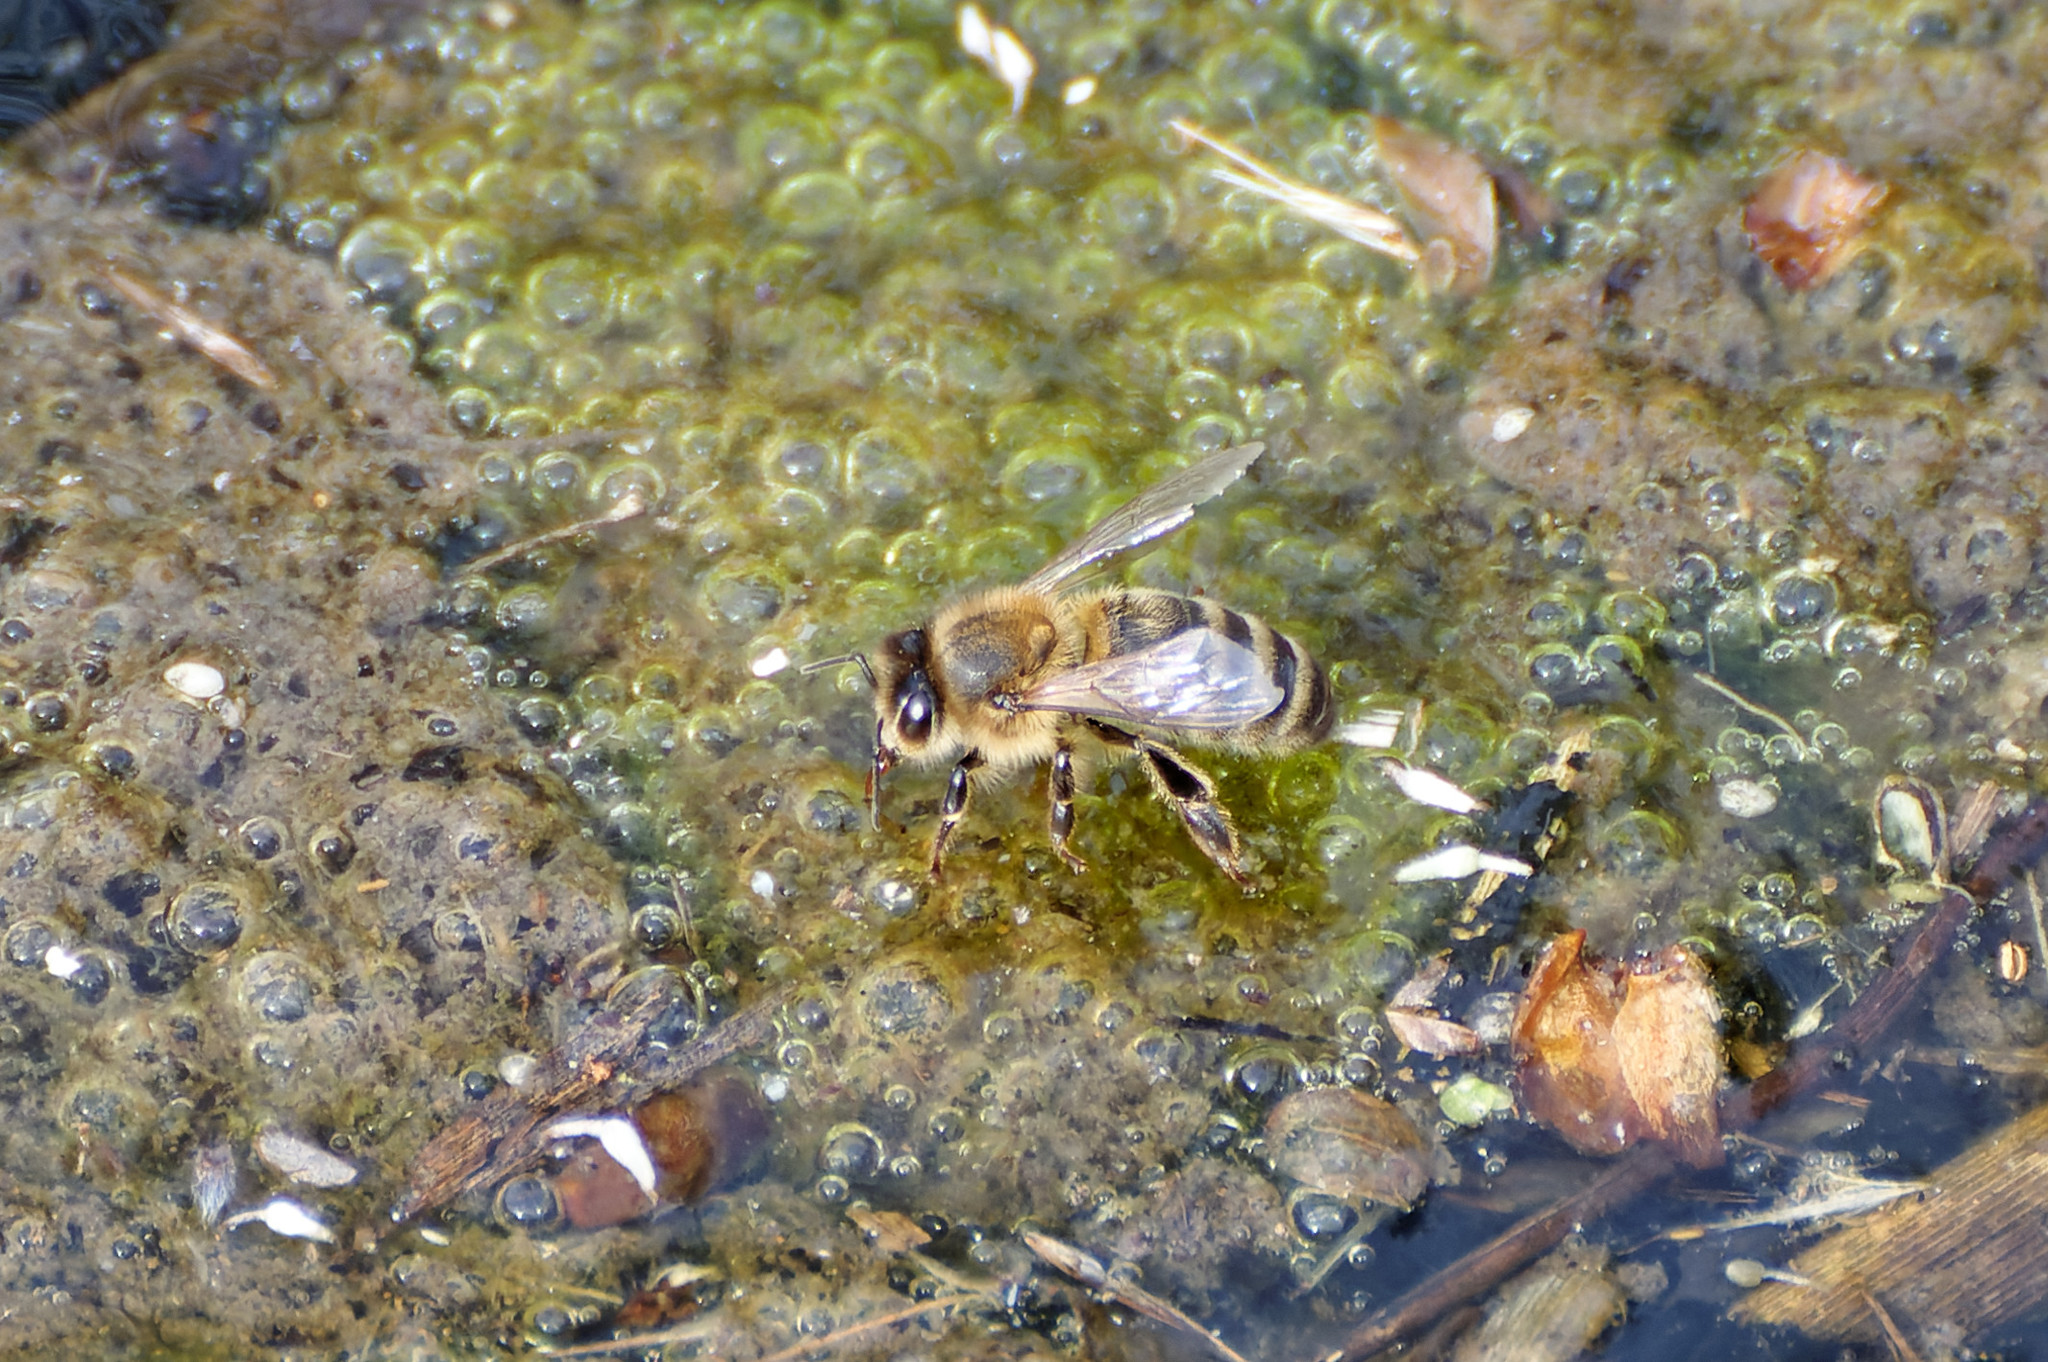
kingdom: Animalia
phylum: Arthropoda
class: Insecta
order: Hymenoptera
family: Apidae
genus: Apis
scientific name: Apis mellifera
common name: Honey bee
